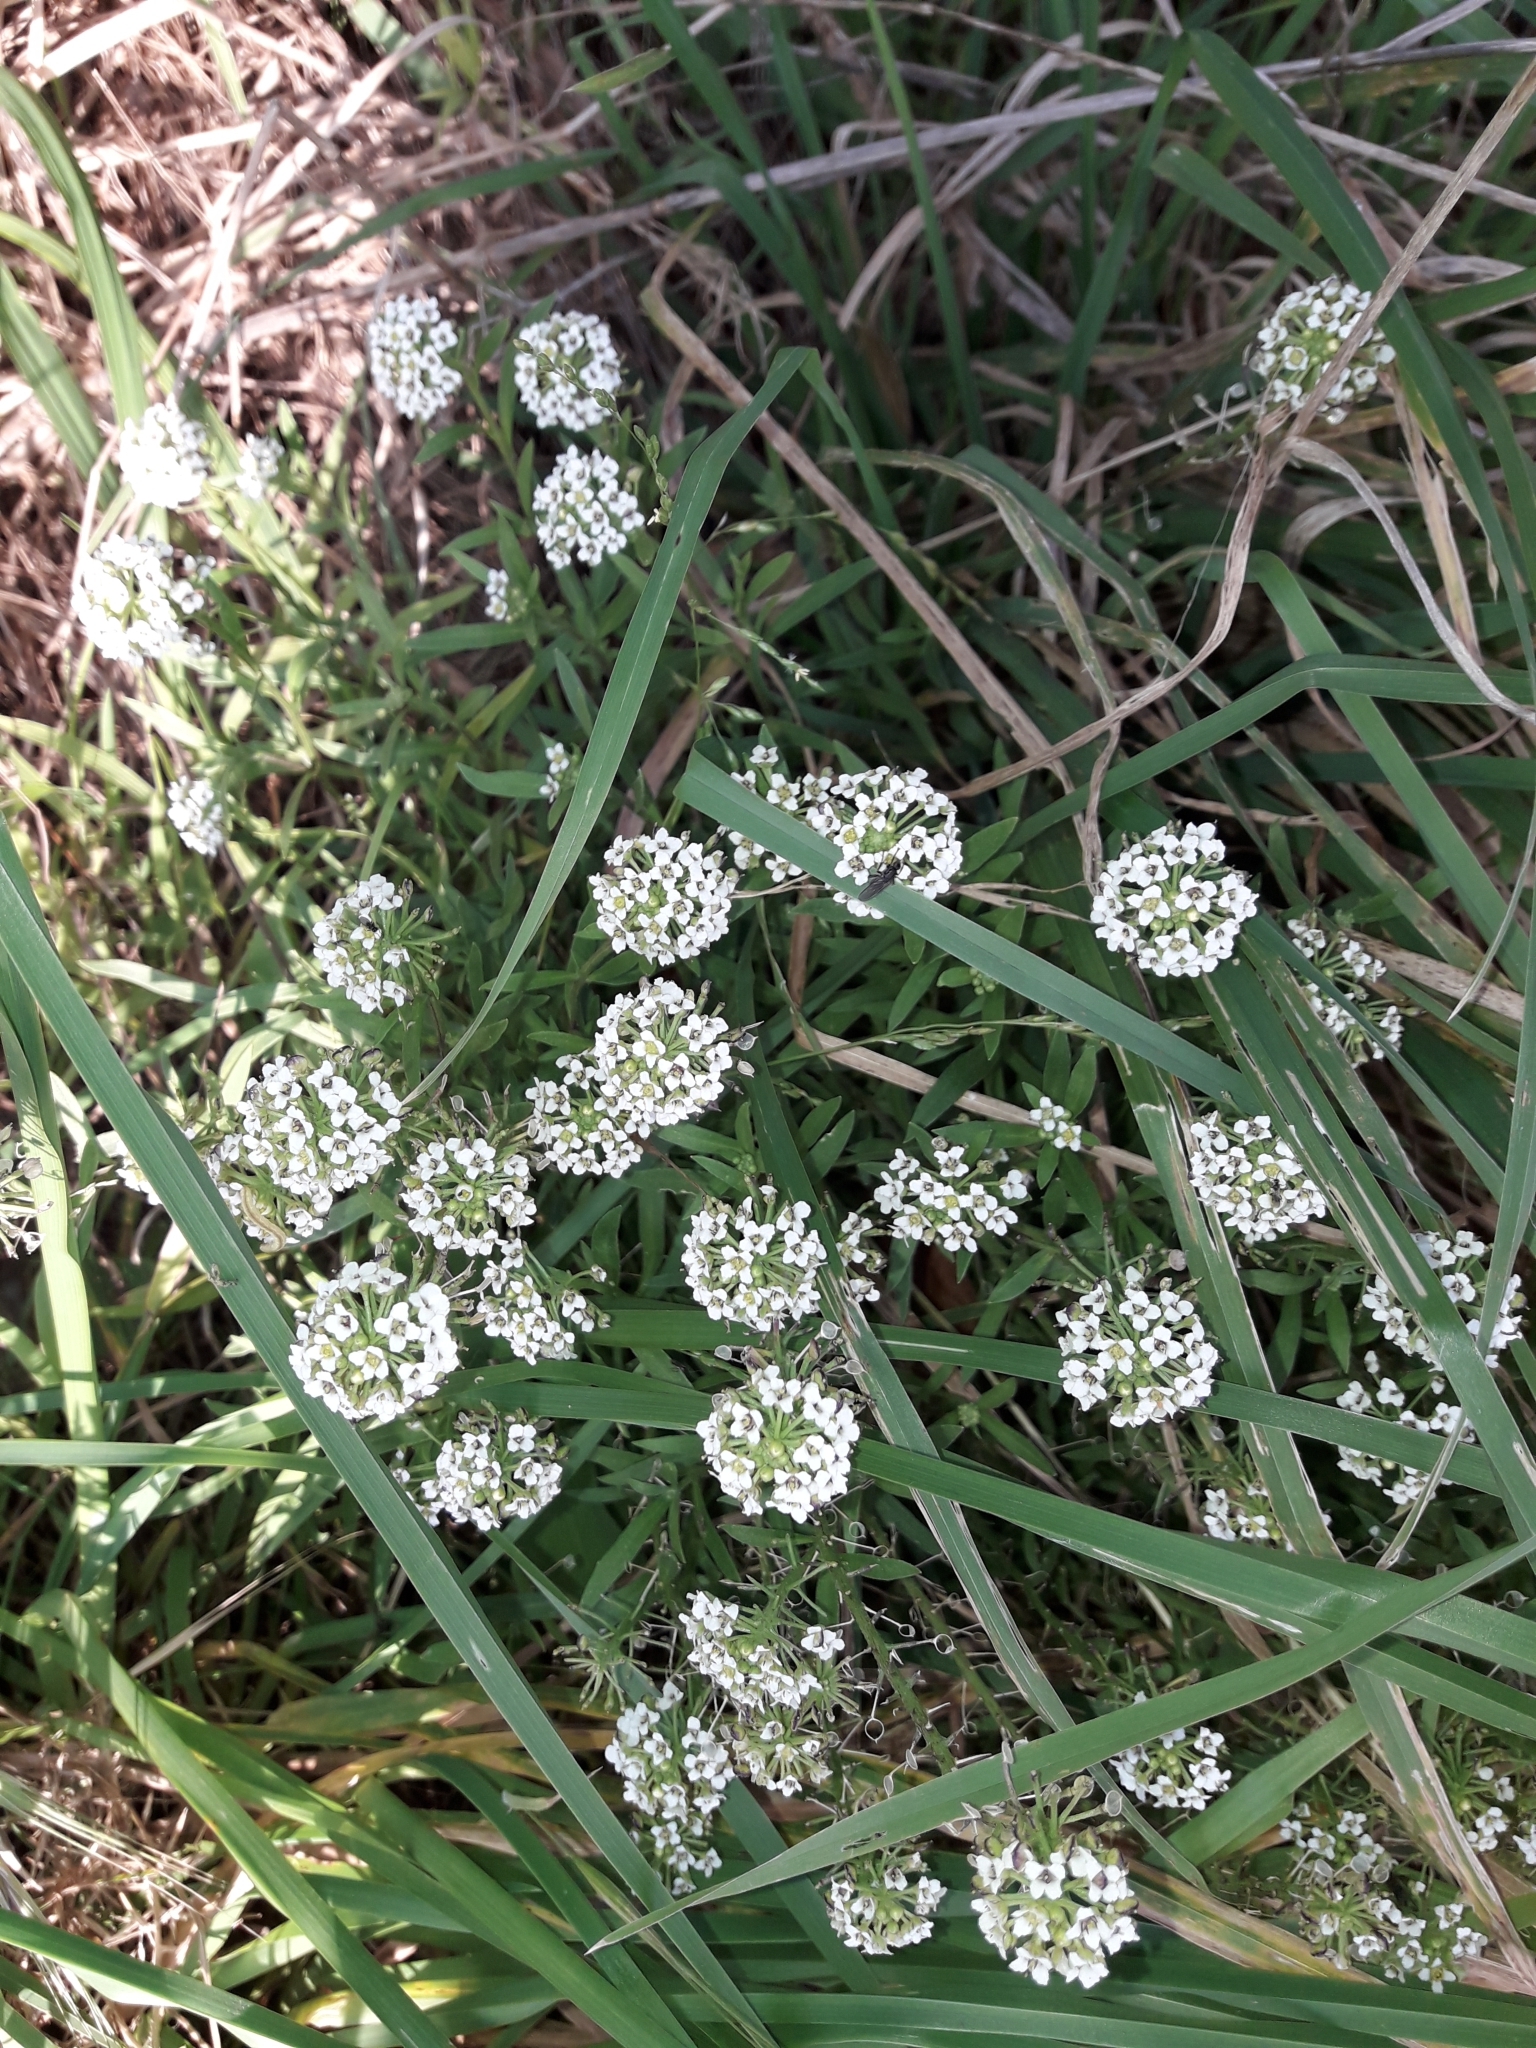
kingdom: Plantae
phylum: Tracheophyta
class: Magnoliopsida
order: Brassicales
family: Brassicaceae
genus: Lobularia
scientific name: Lobularia maritima
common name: Sweet alison
